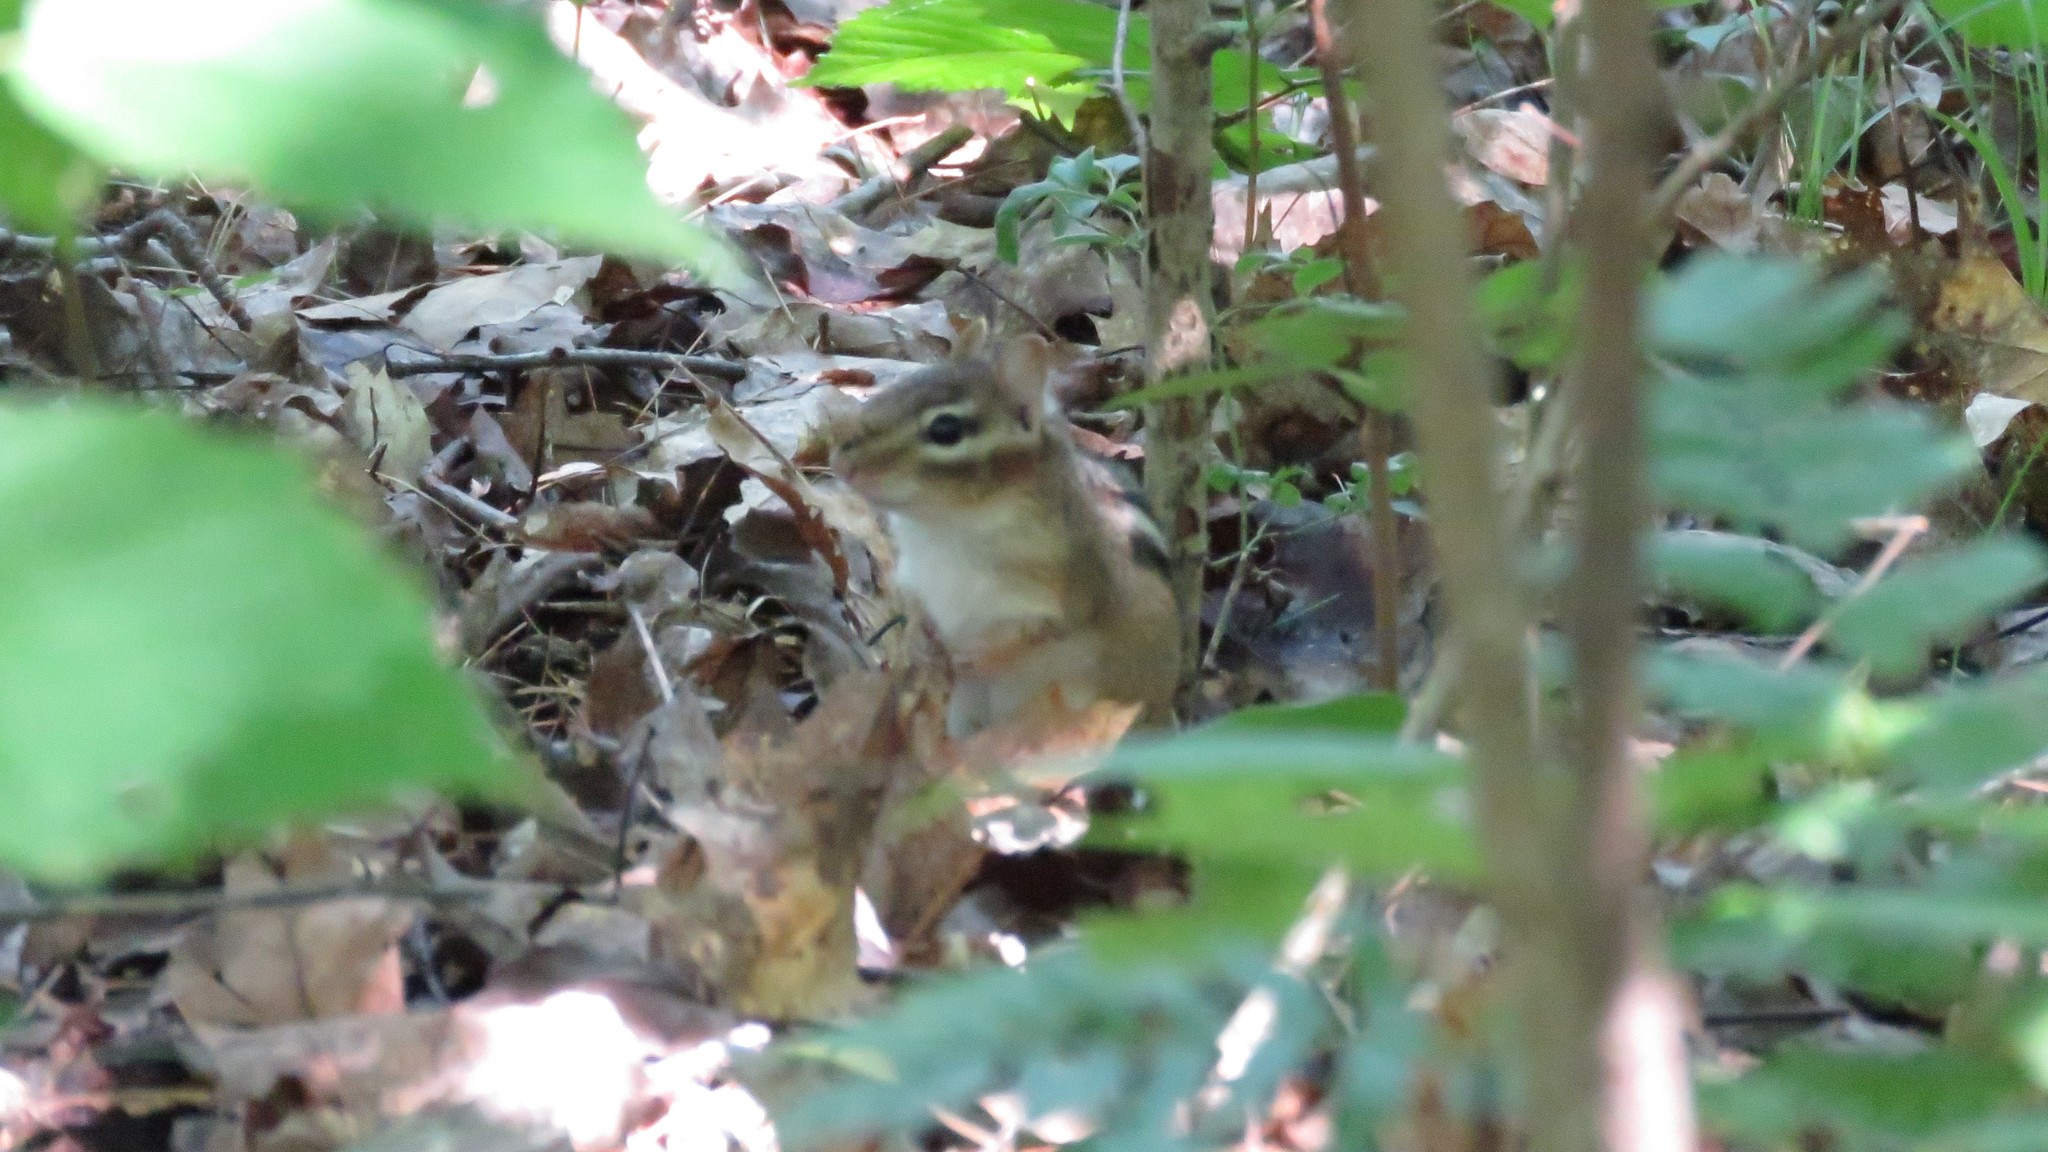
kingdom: Animalia
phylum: Chordata
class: Mammalia
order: Rodentia
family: Sciuridae
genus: Tamias
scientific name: Tamias striatus
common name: Eastern chipmunk
